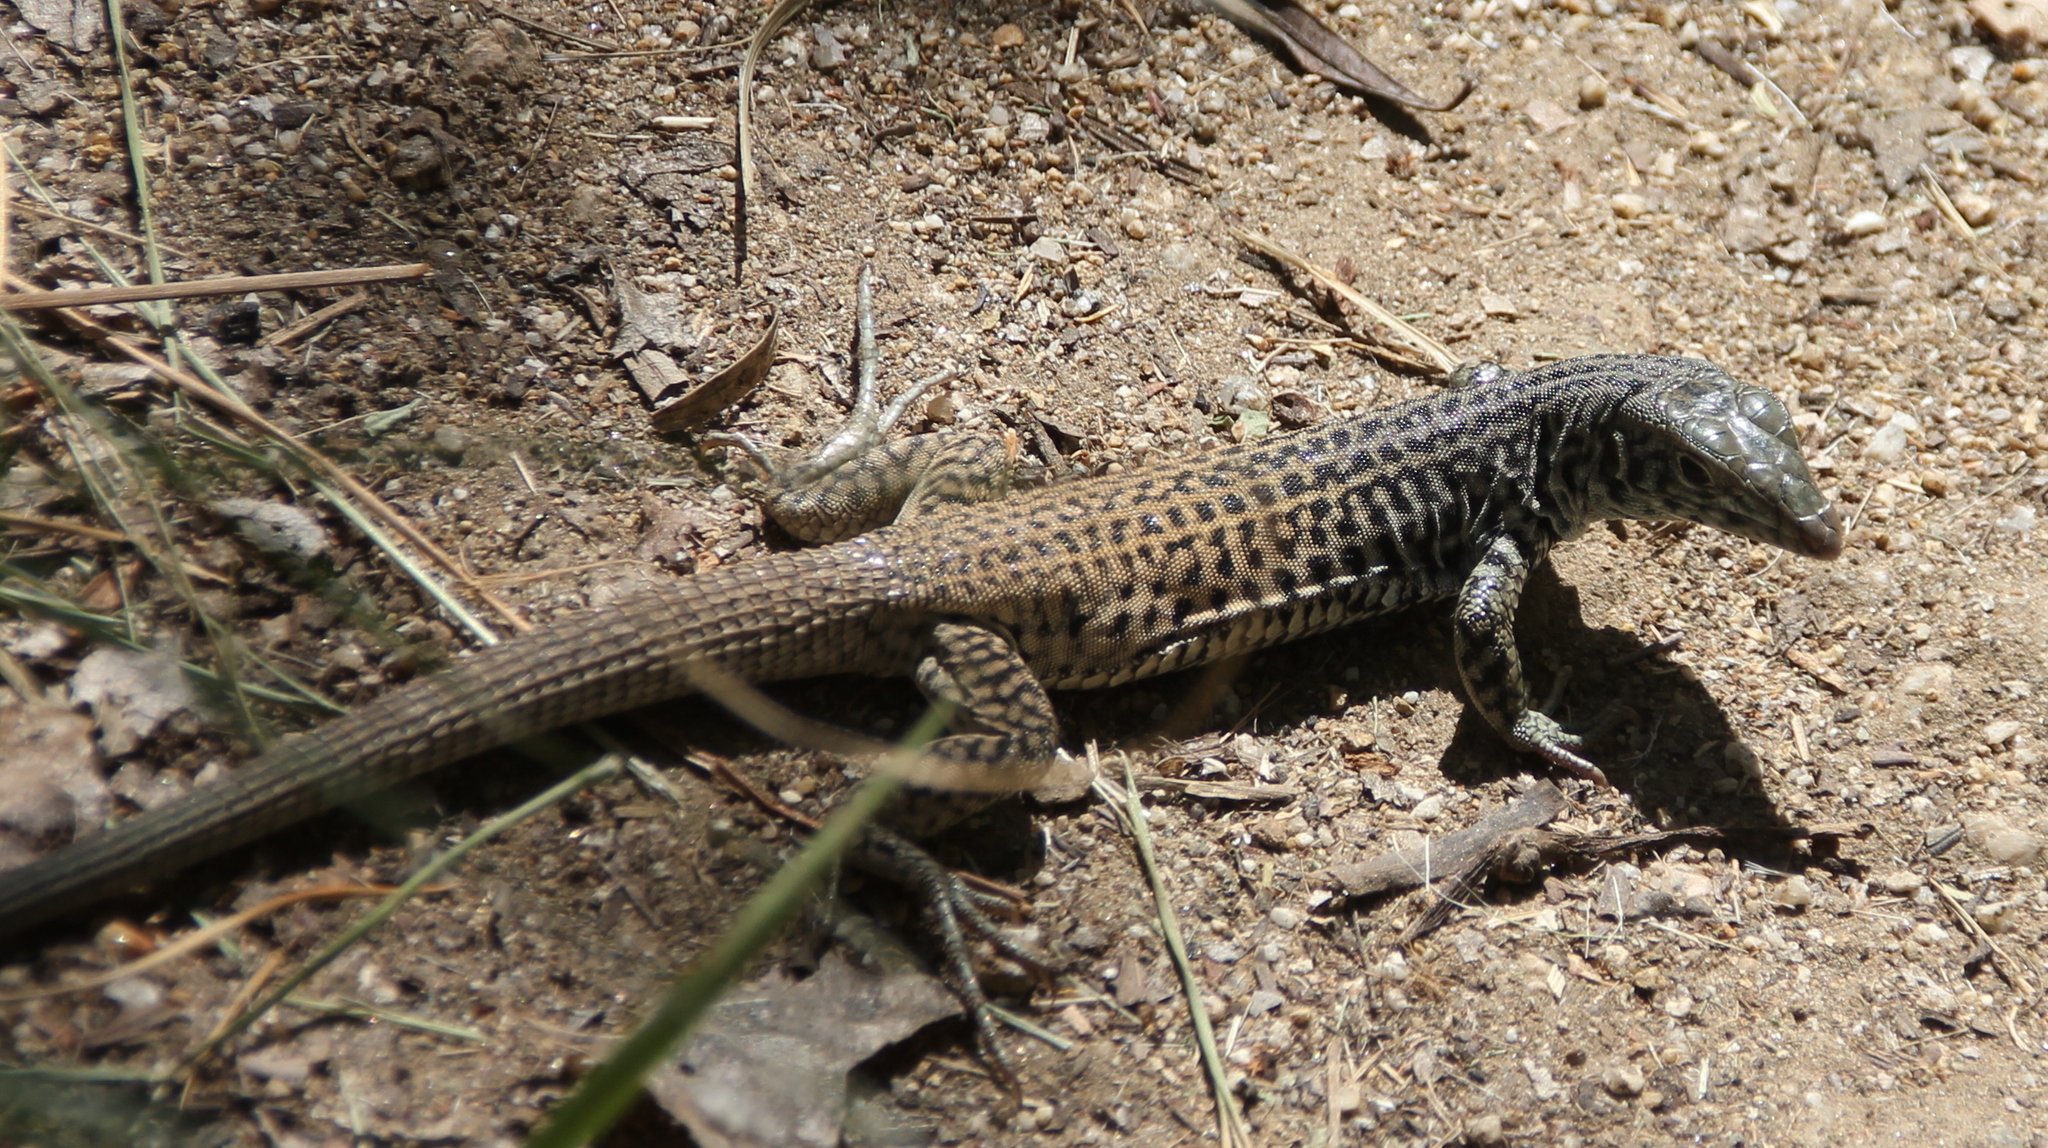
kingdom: Animalia
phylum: Chordata
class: Squamata
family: Teiidae
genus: Aspidoscelis
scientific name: Aspidoscelis tigris
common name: Tiger whiptail
